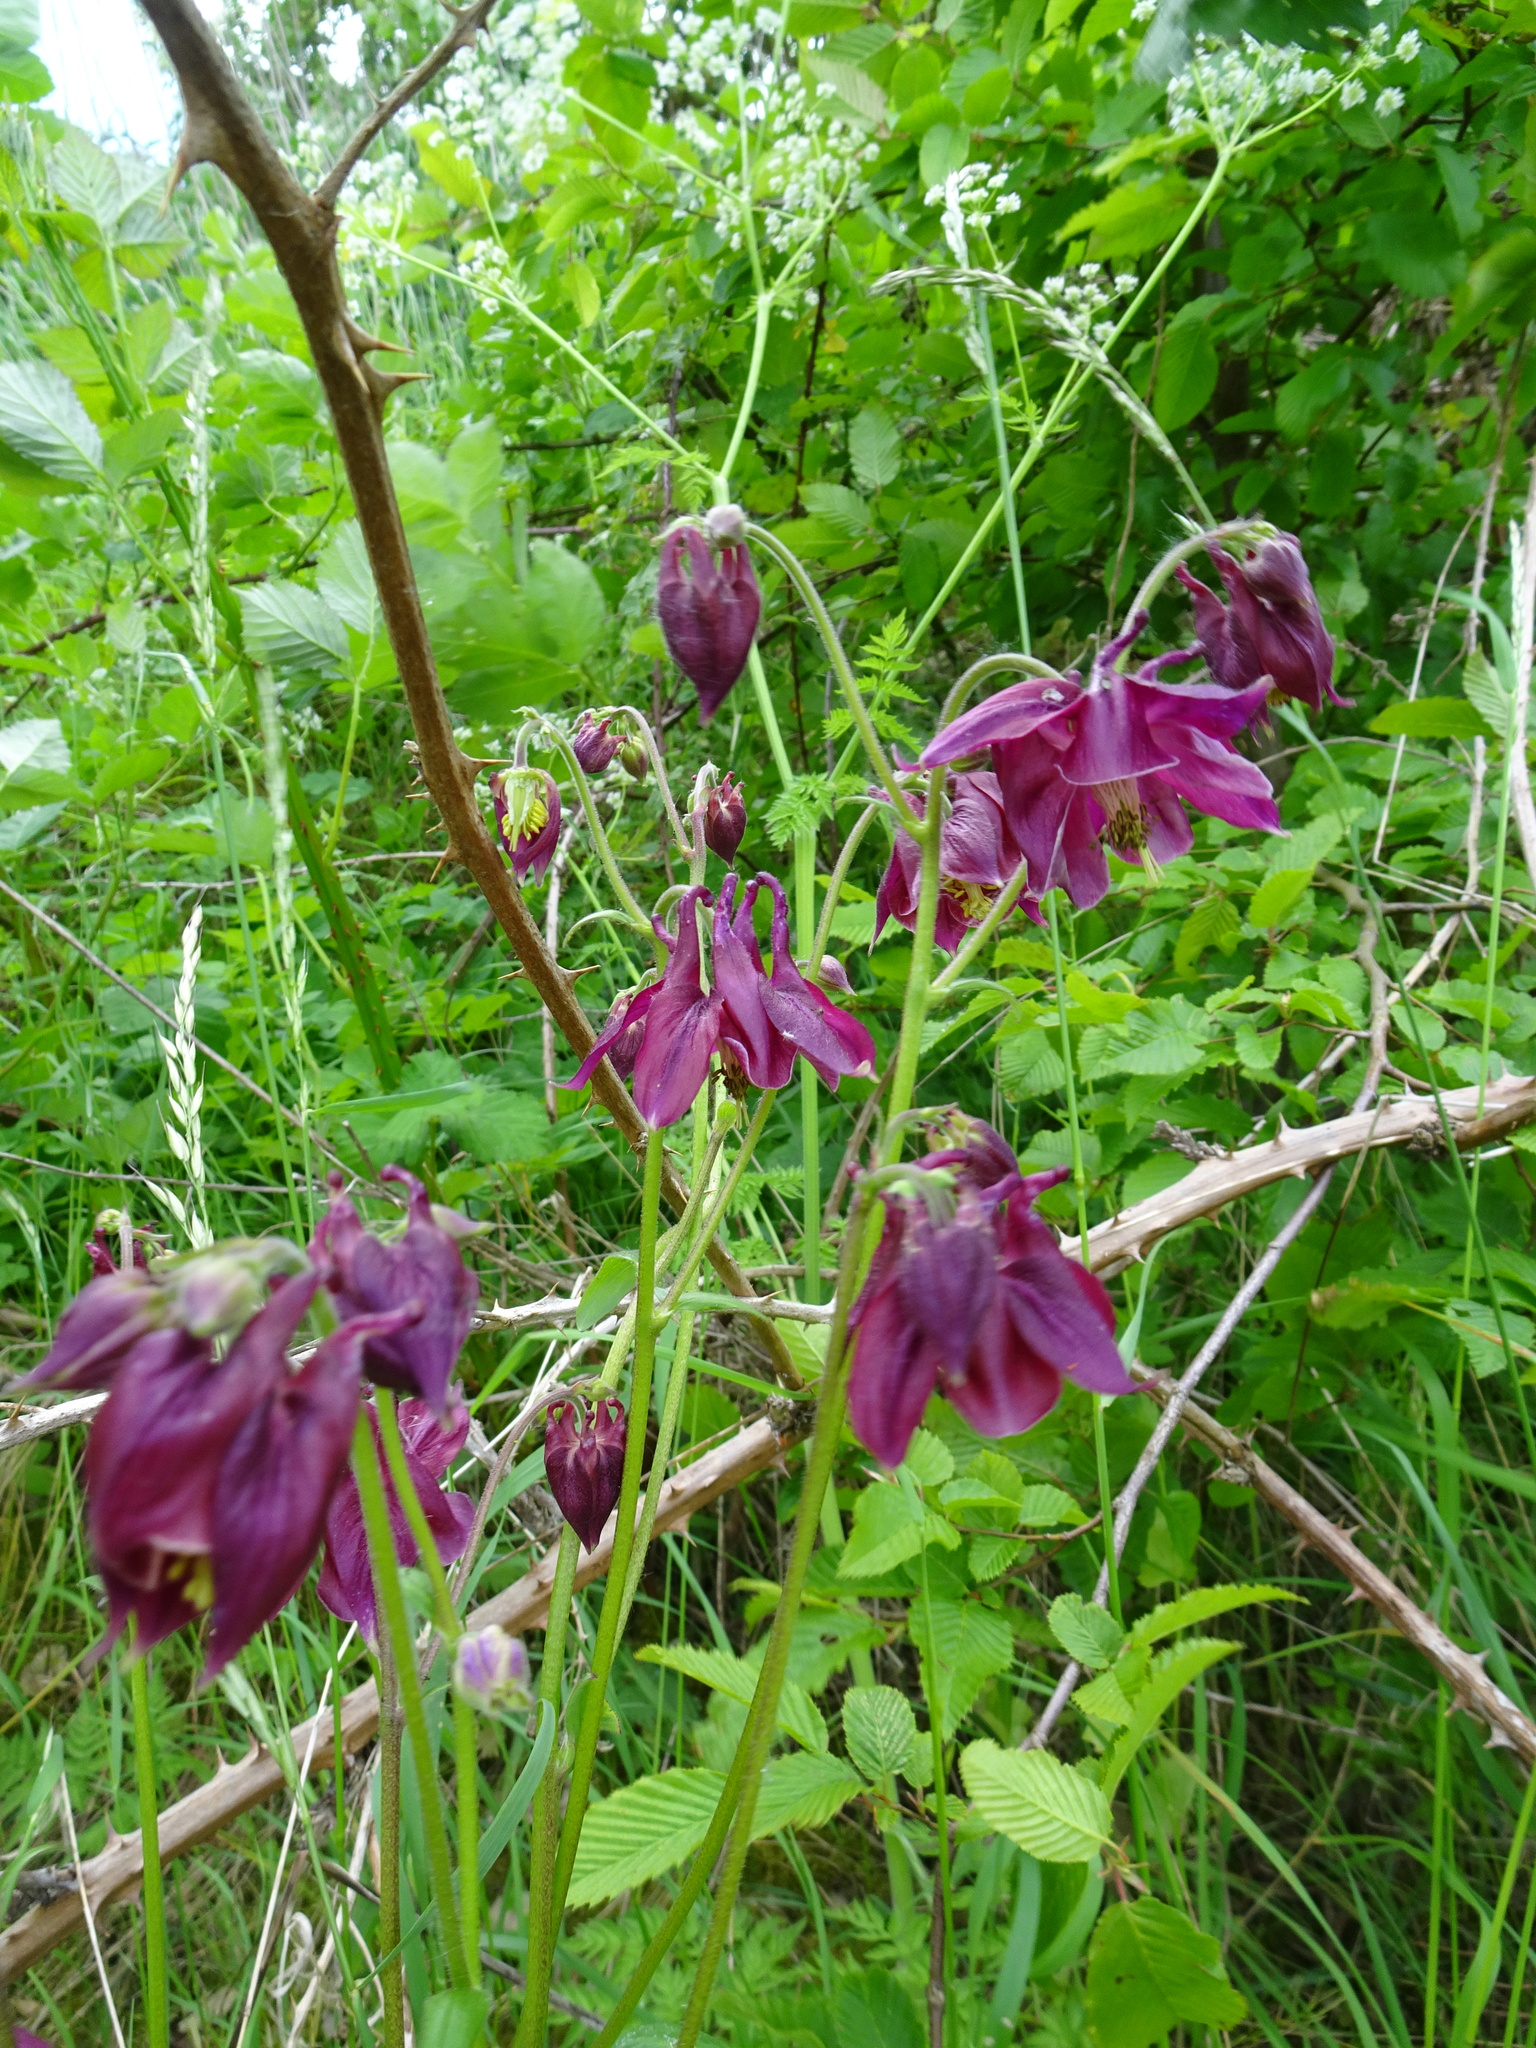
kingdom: Plantae
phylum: Tracheophyta
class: Magnoliopsida
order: Ranunculales
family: Ranunculaceae
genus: Aquilegia
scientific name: Aquilegia
